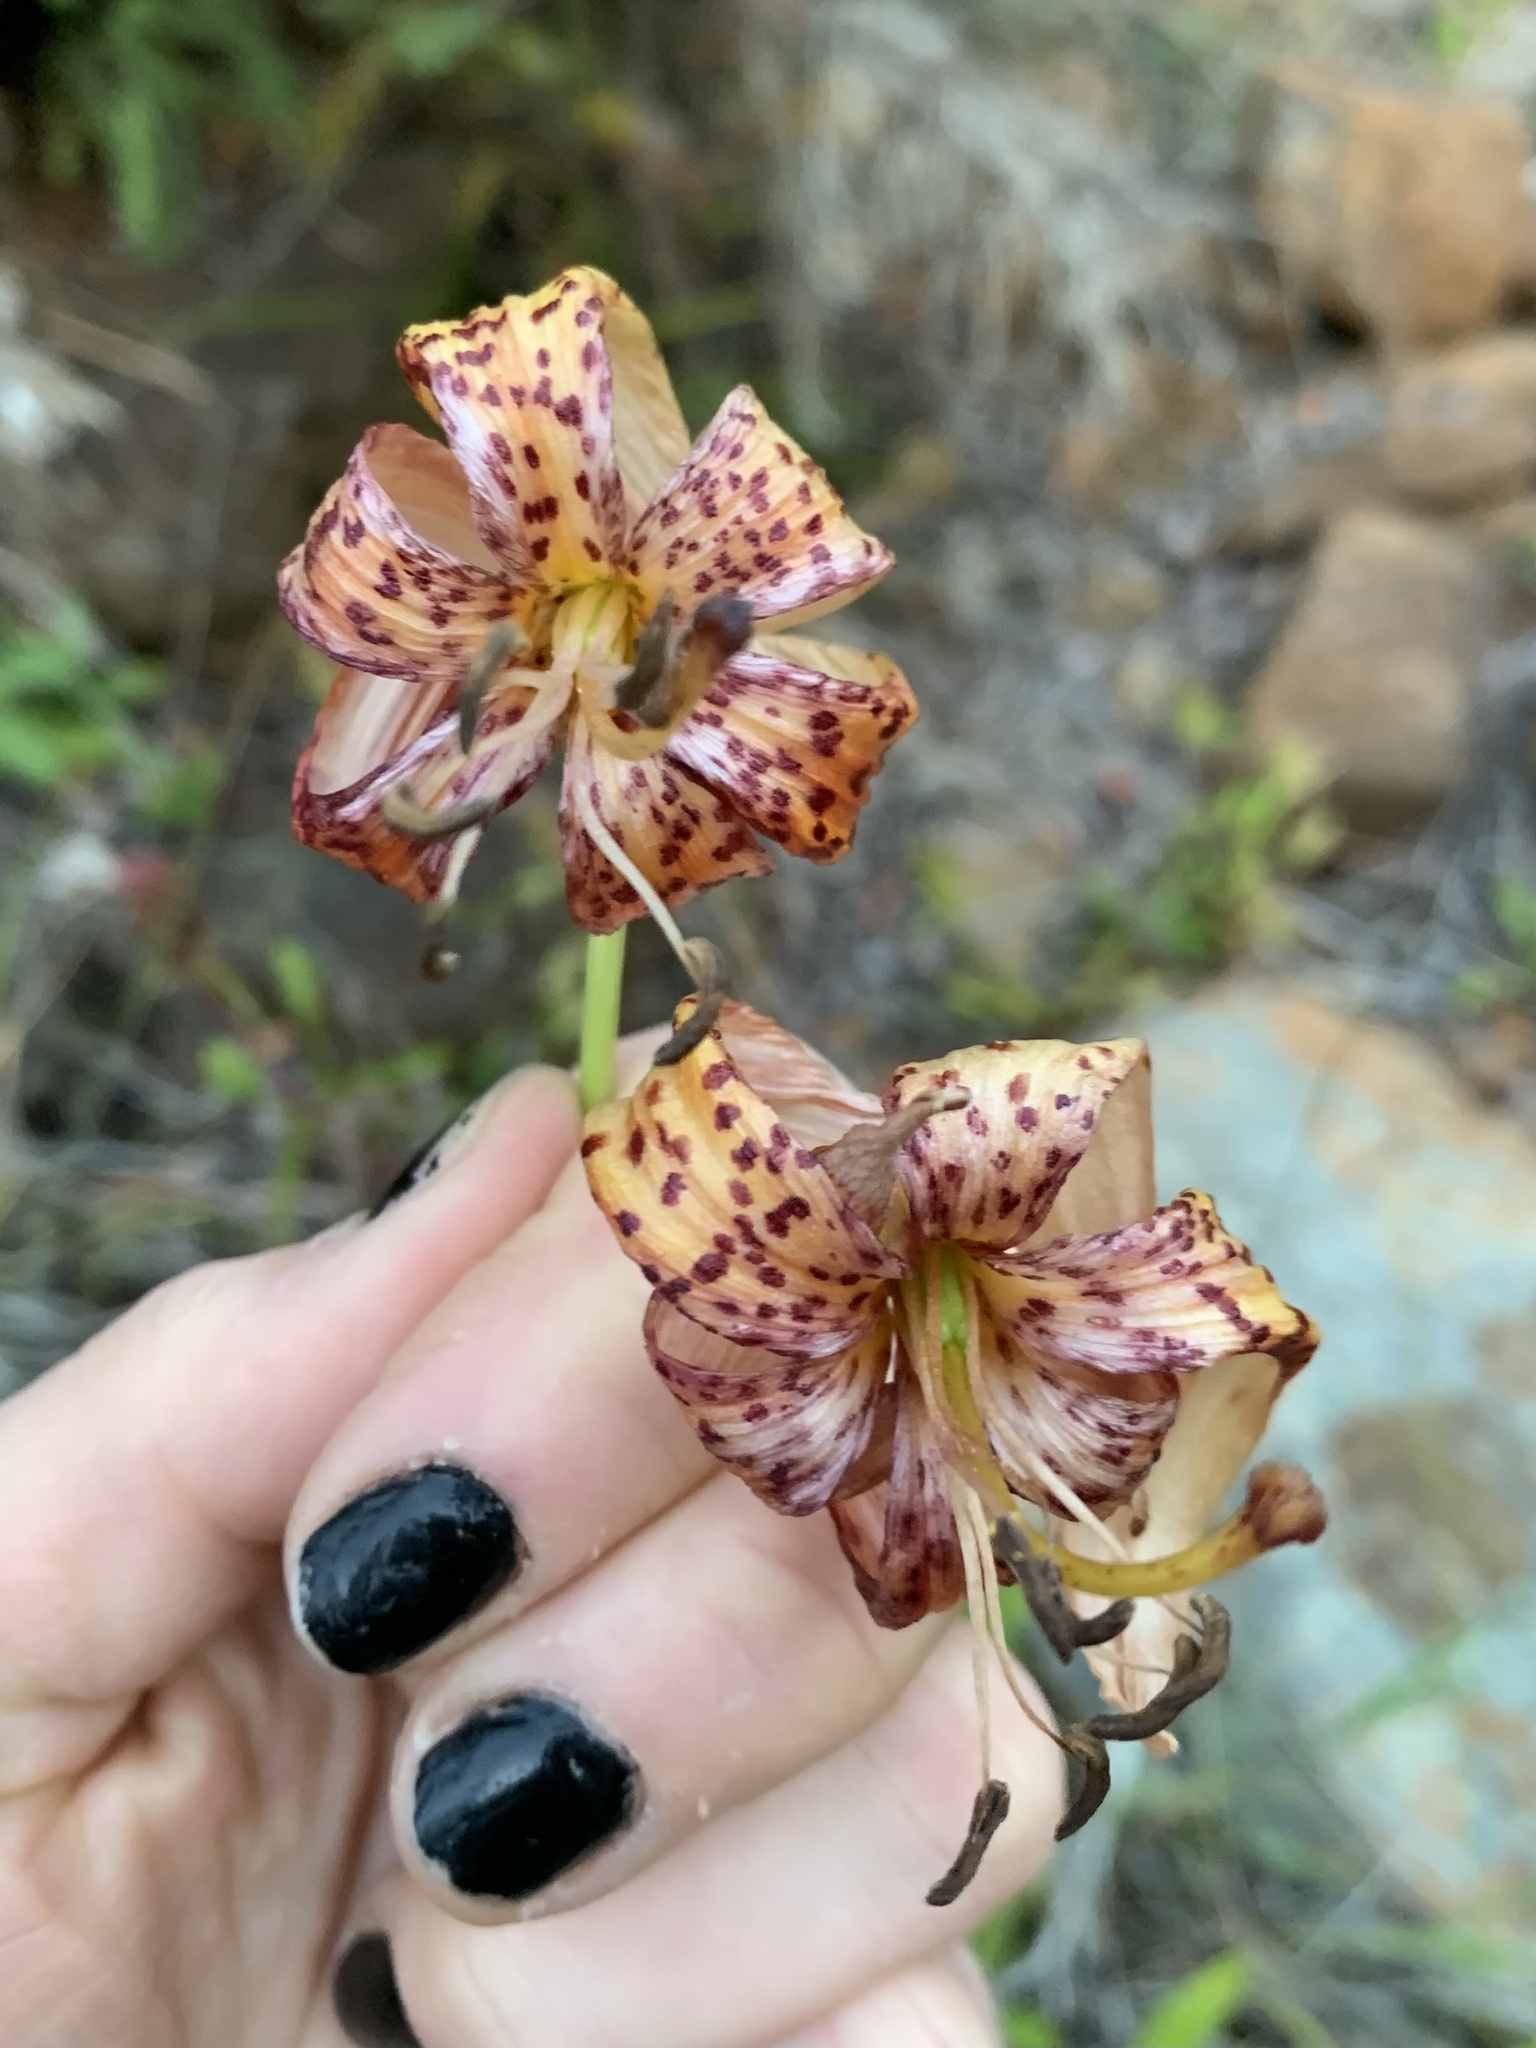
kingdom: Plantae
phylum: Tracheophyta
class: Liliopsida
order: Liliales
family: Liliaceae
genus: Lilium
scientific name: Lilium pardalinum
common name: Panther lily
